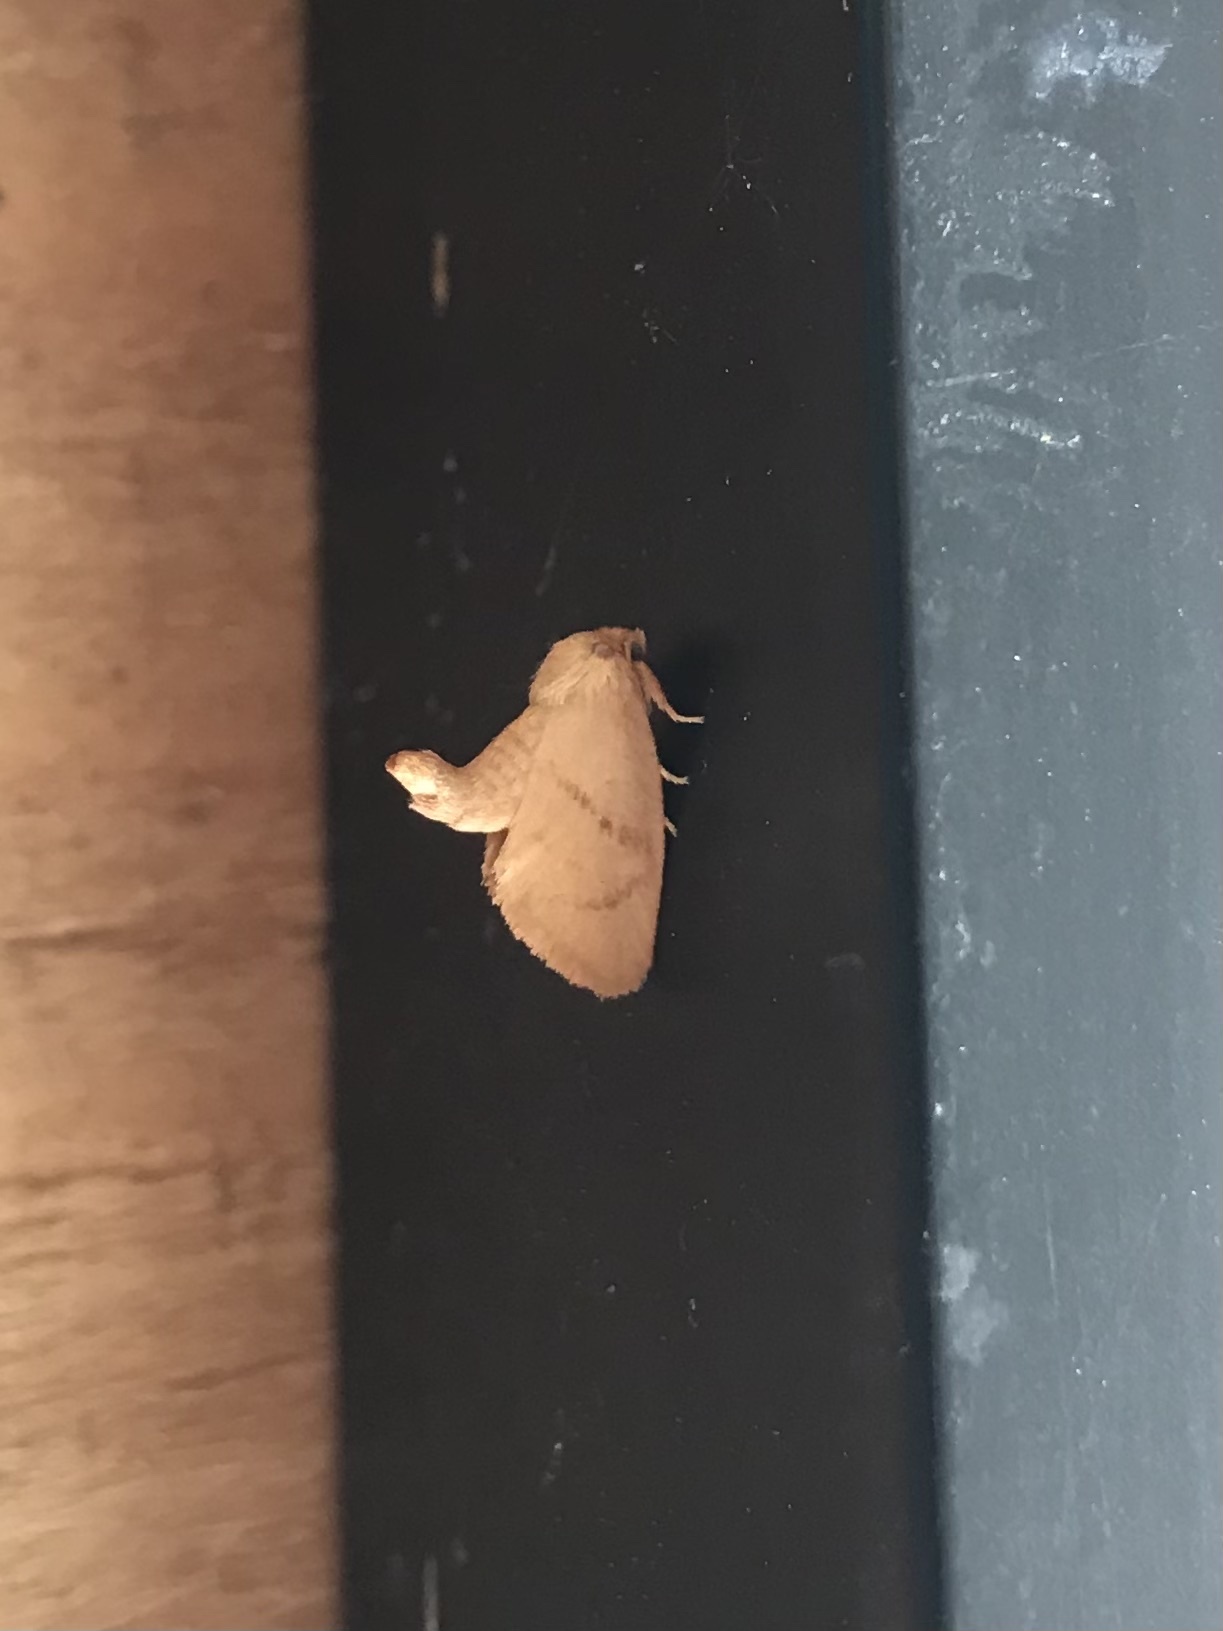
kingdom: Animalia
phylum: Arthropoda
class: Insecta
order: Lepidoptera
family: Limacodidae
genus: Tortricidia
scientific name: Tortricidia pallida
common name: Red-crossed button slug moth
